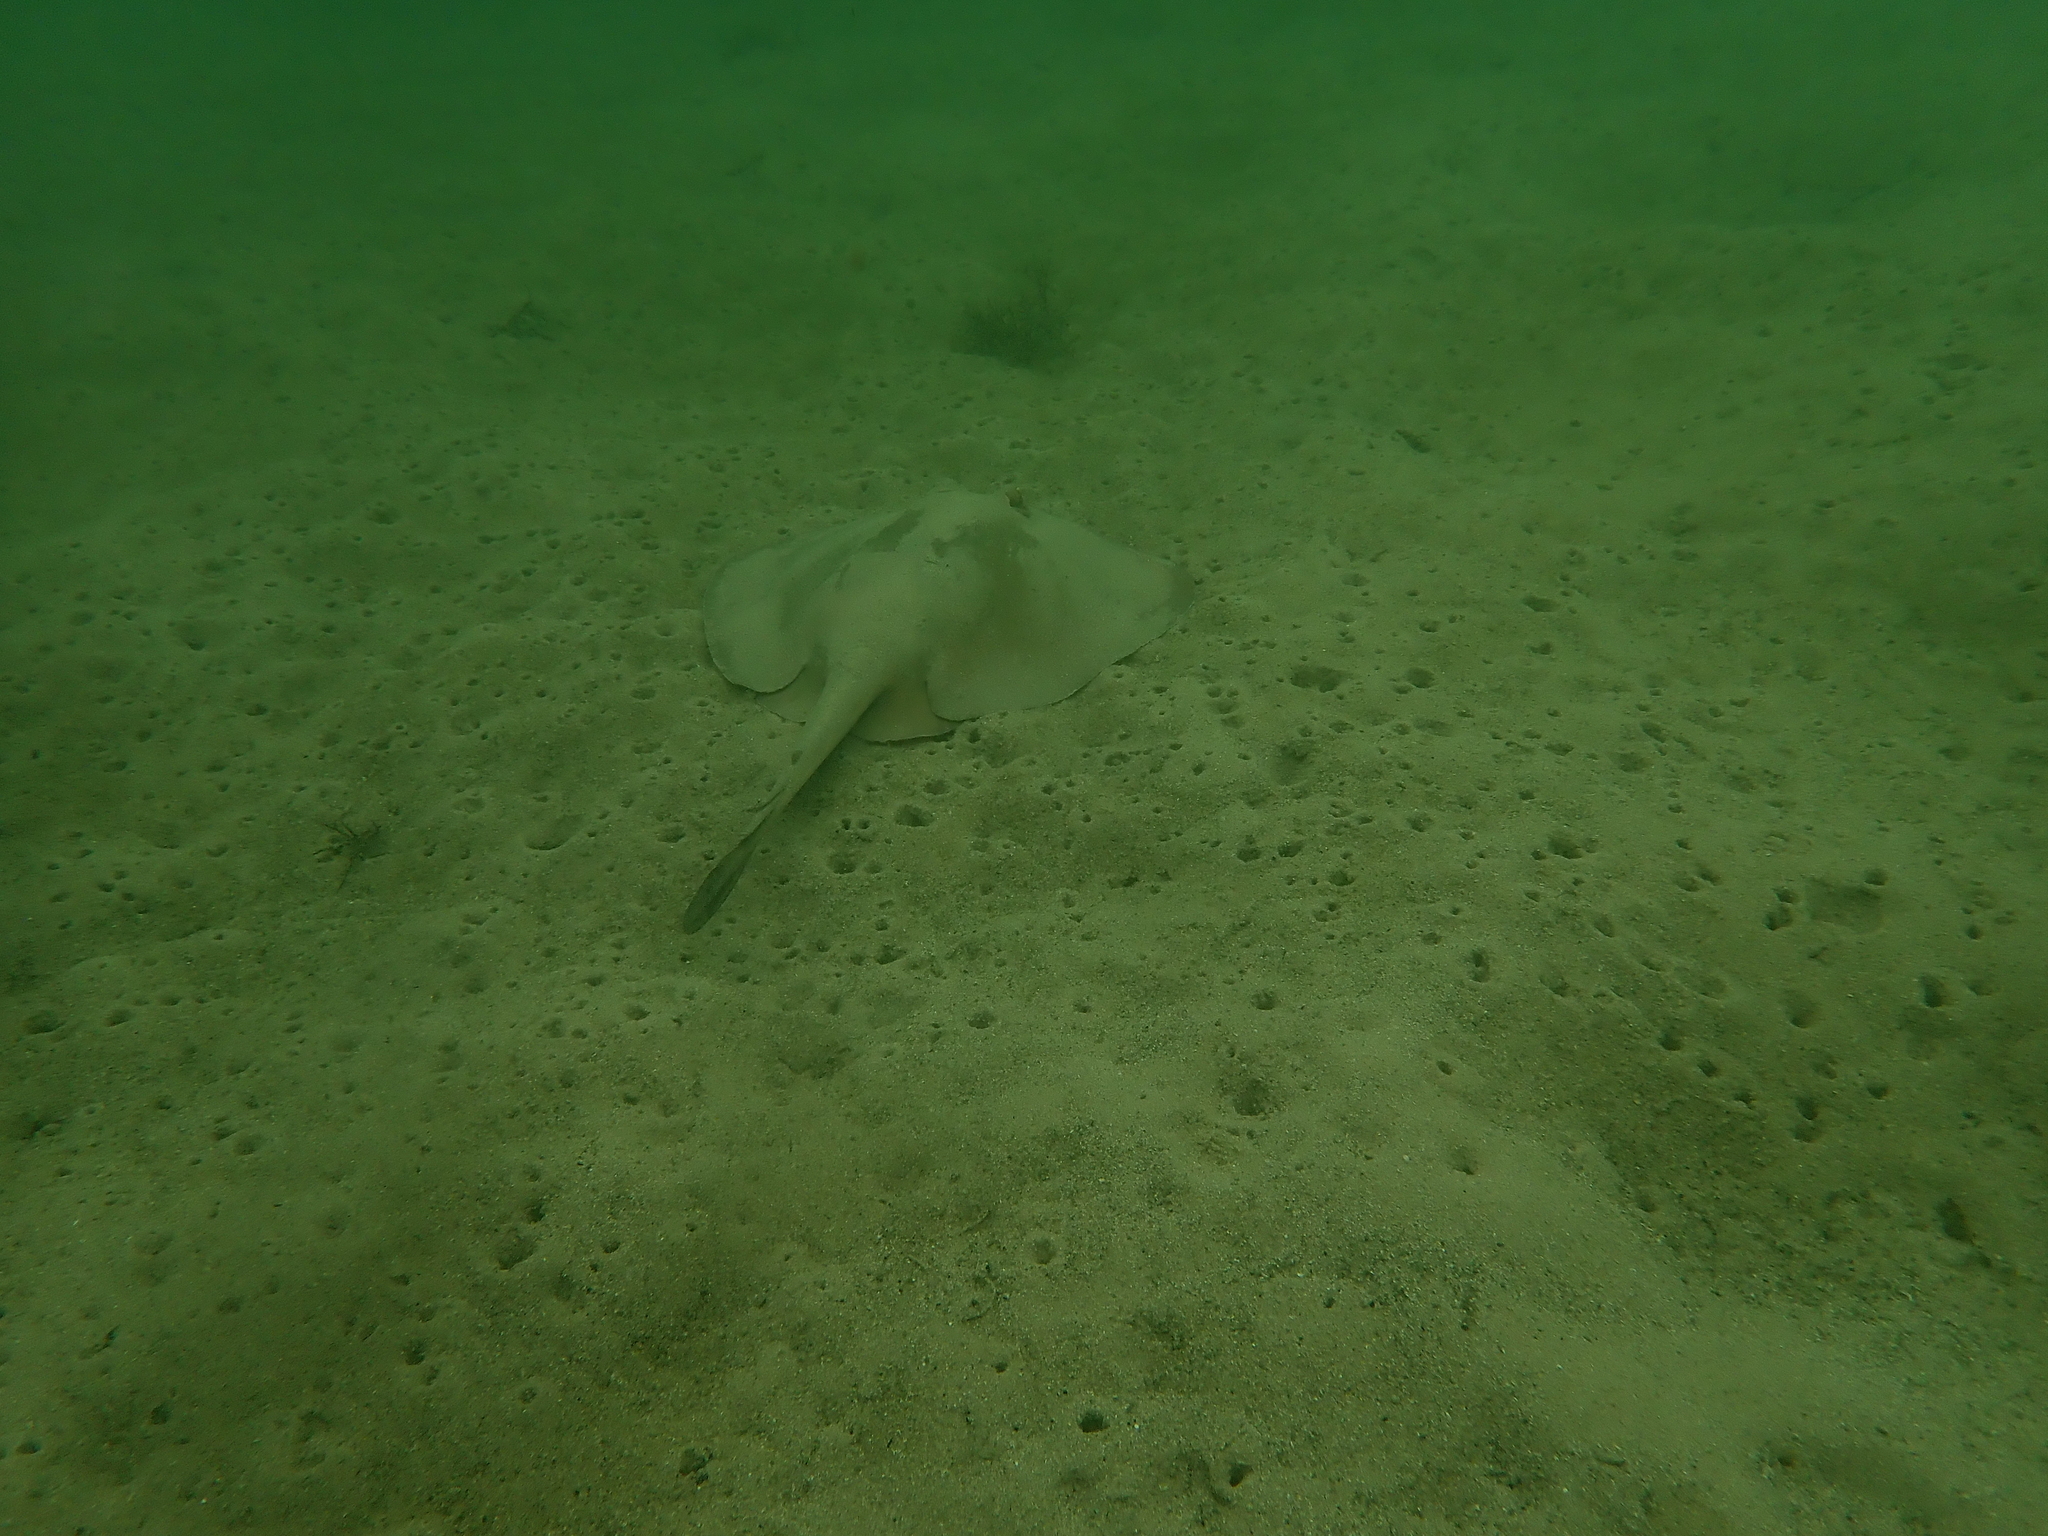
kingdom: Animalia
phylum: Chordata
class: Elasmobranchii
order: Myliobatiformes
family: Urolophidae
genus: Trygonoptera
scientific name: Trygonoptera testacea
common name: Common stingaree
